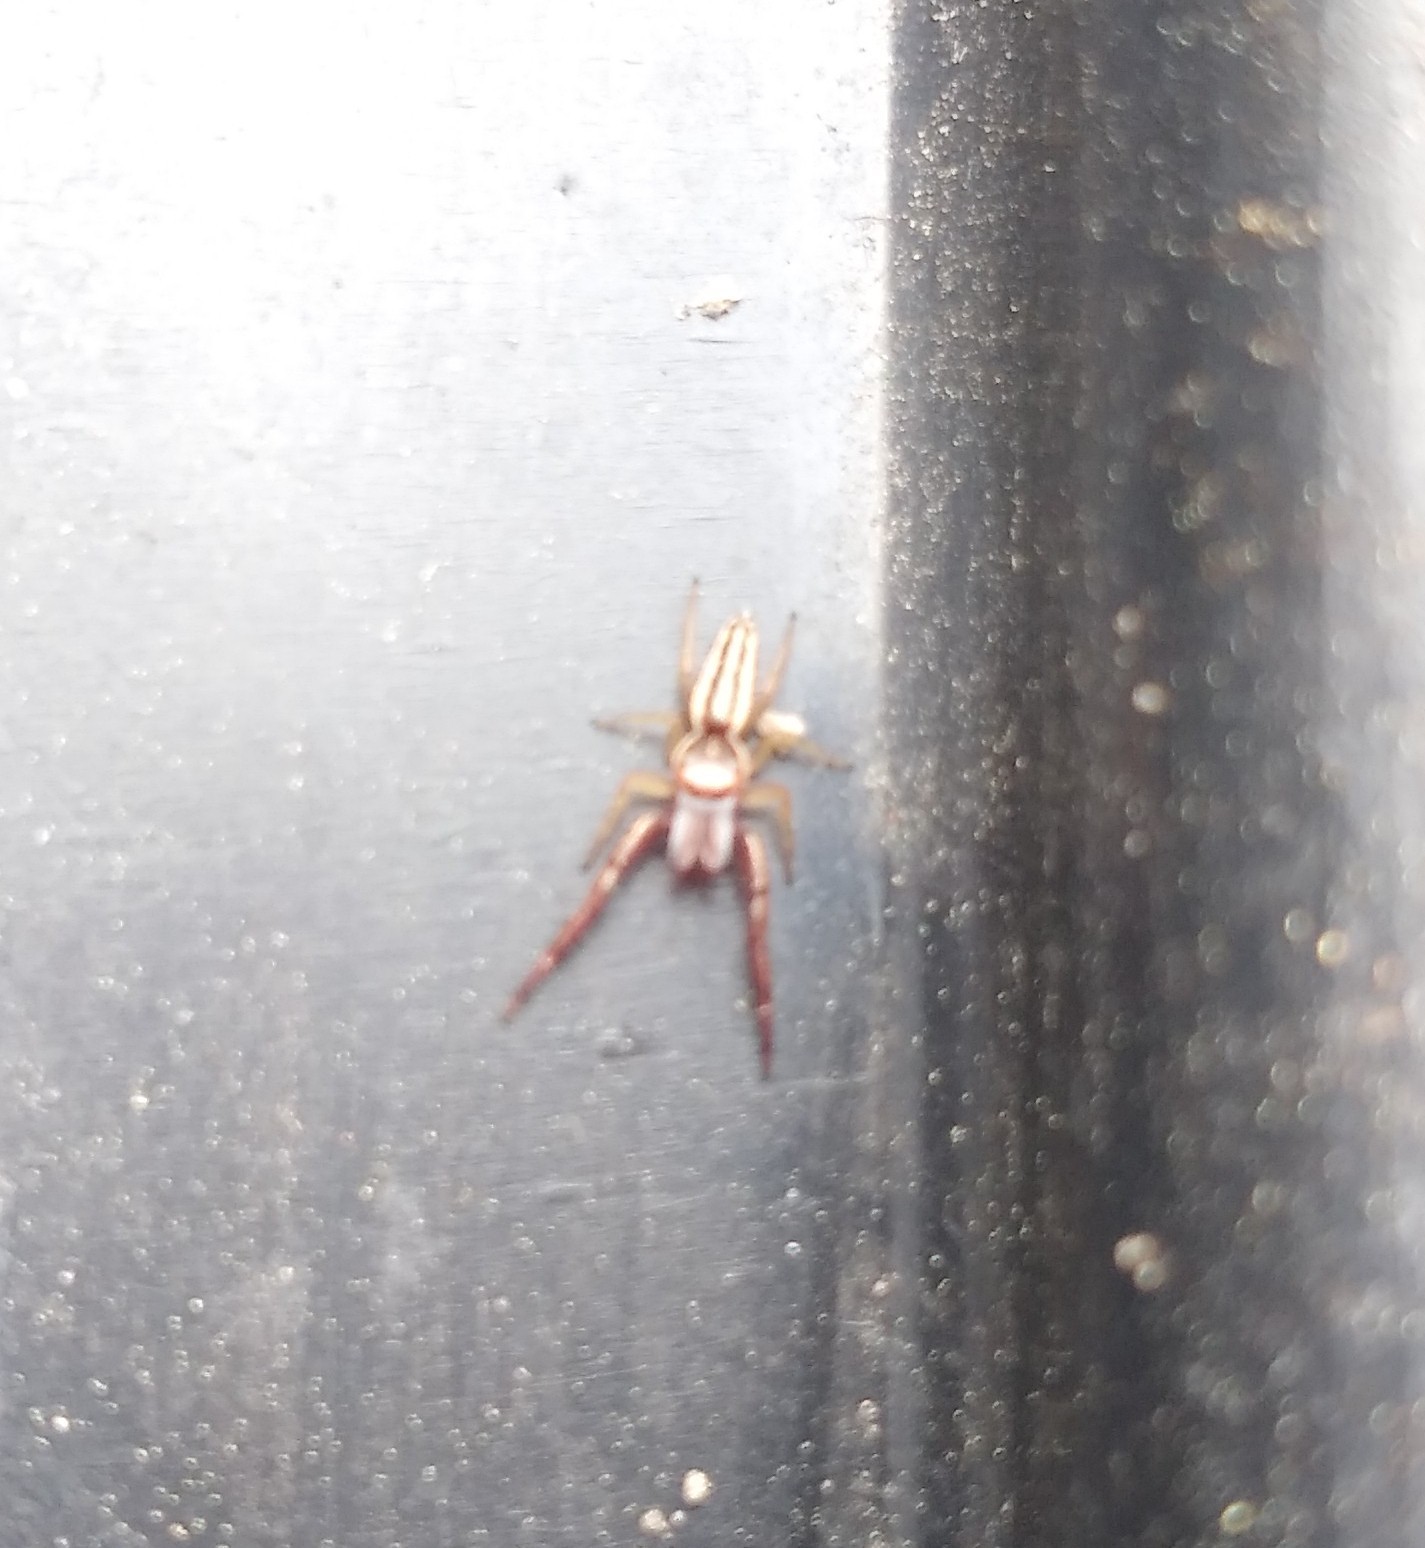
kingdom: Animalia
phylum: Arthropoda
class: Arachnida
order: Araneae
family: Salticidae
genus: Hentzia
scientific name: Hentzia palmarum
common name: Common hentz jumping spider
